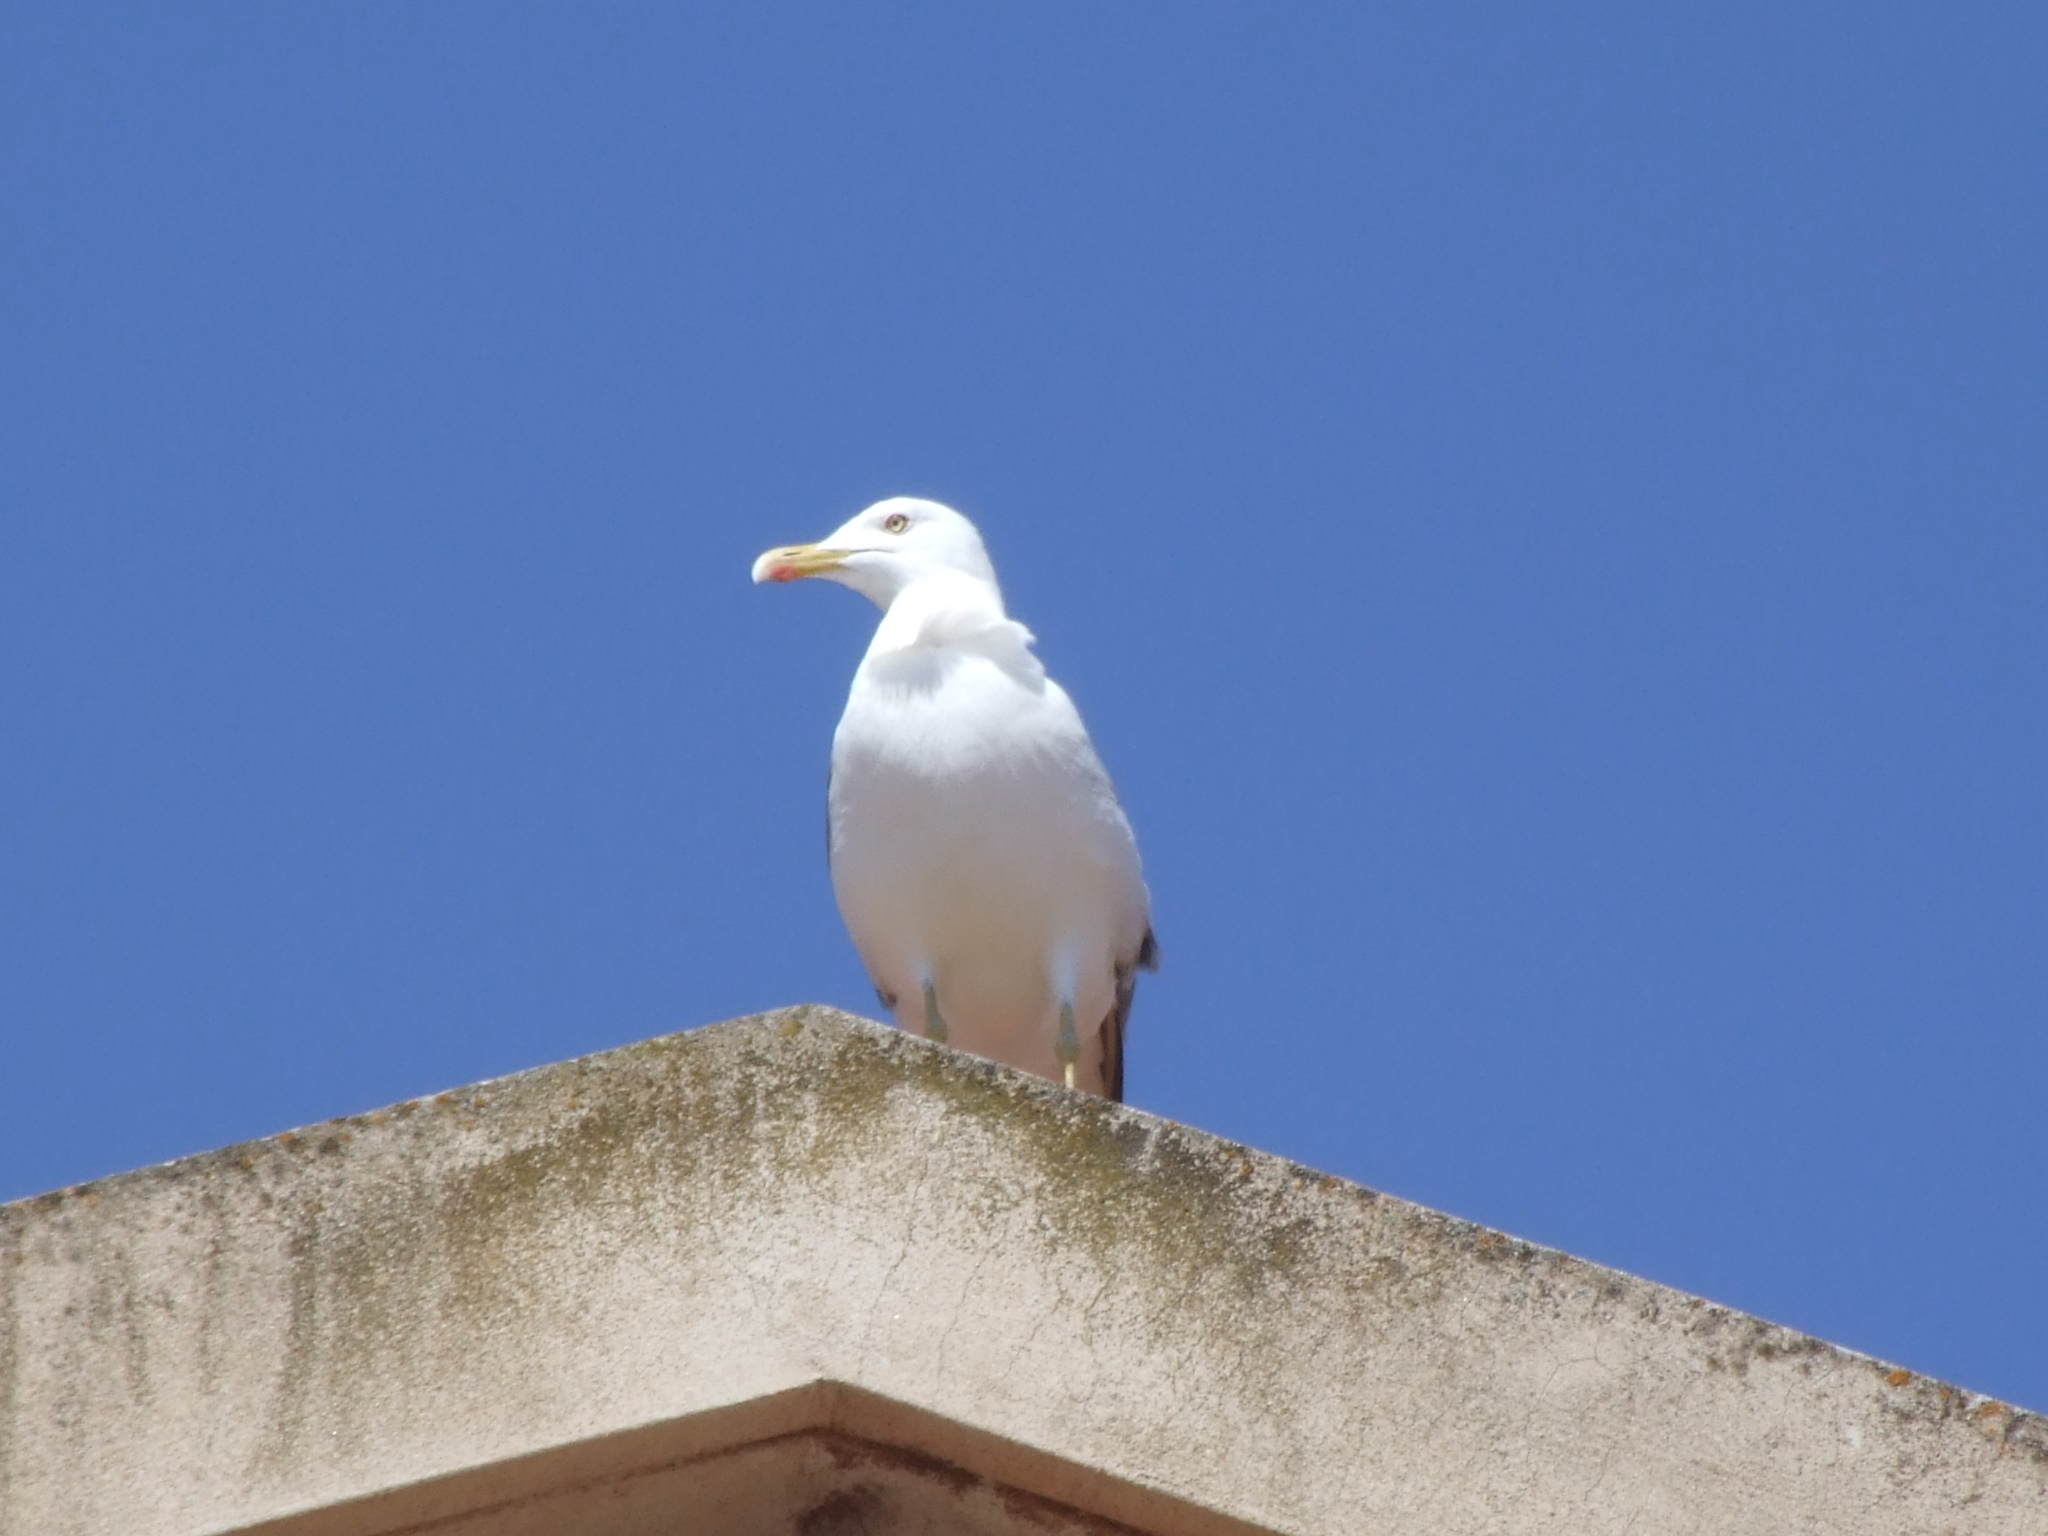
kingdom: Animalia
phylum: Chordata
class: Aves
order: Charadriiformes
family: Laridae
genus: Larus
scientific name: Larus michahellis
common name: Yellow-legged gull
